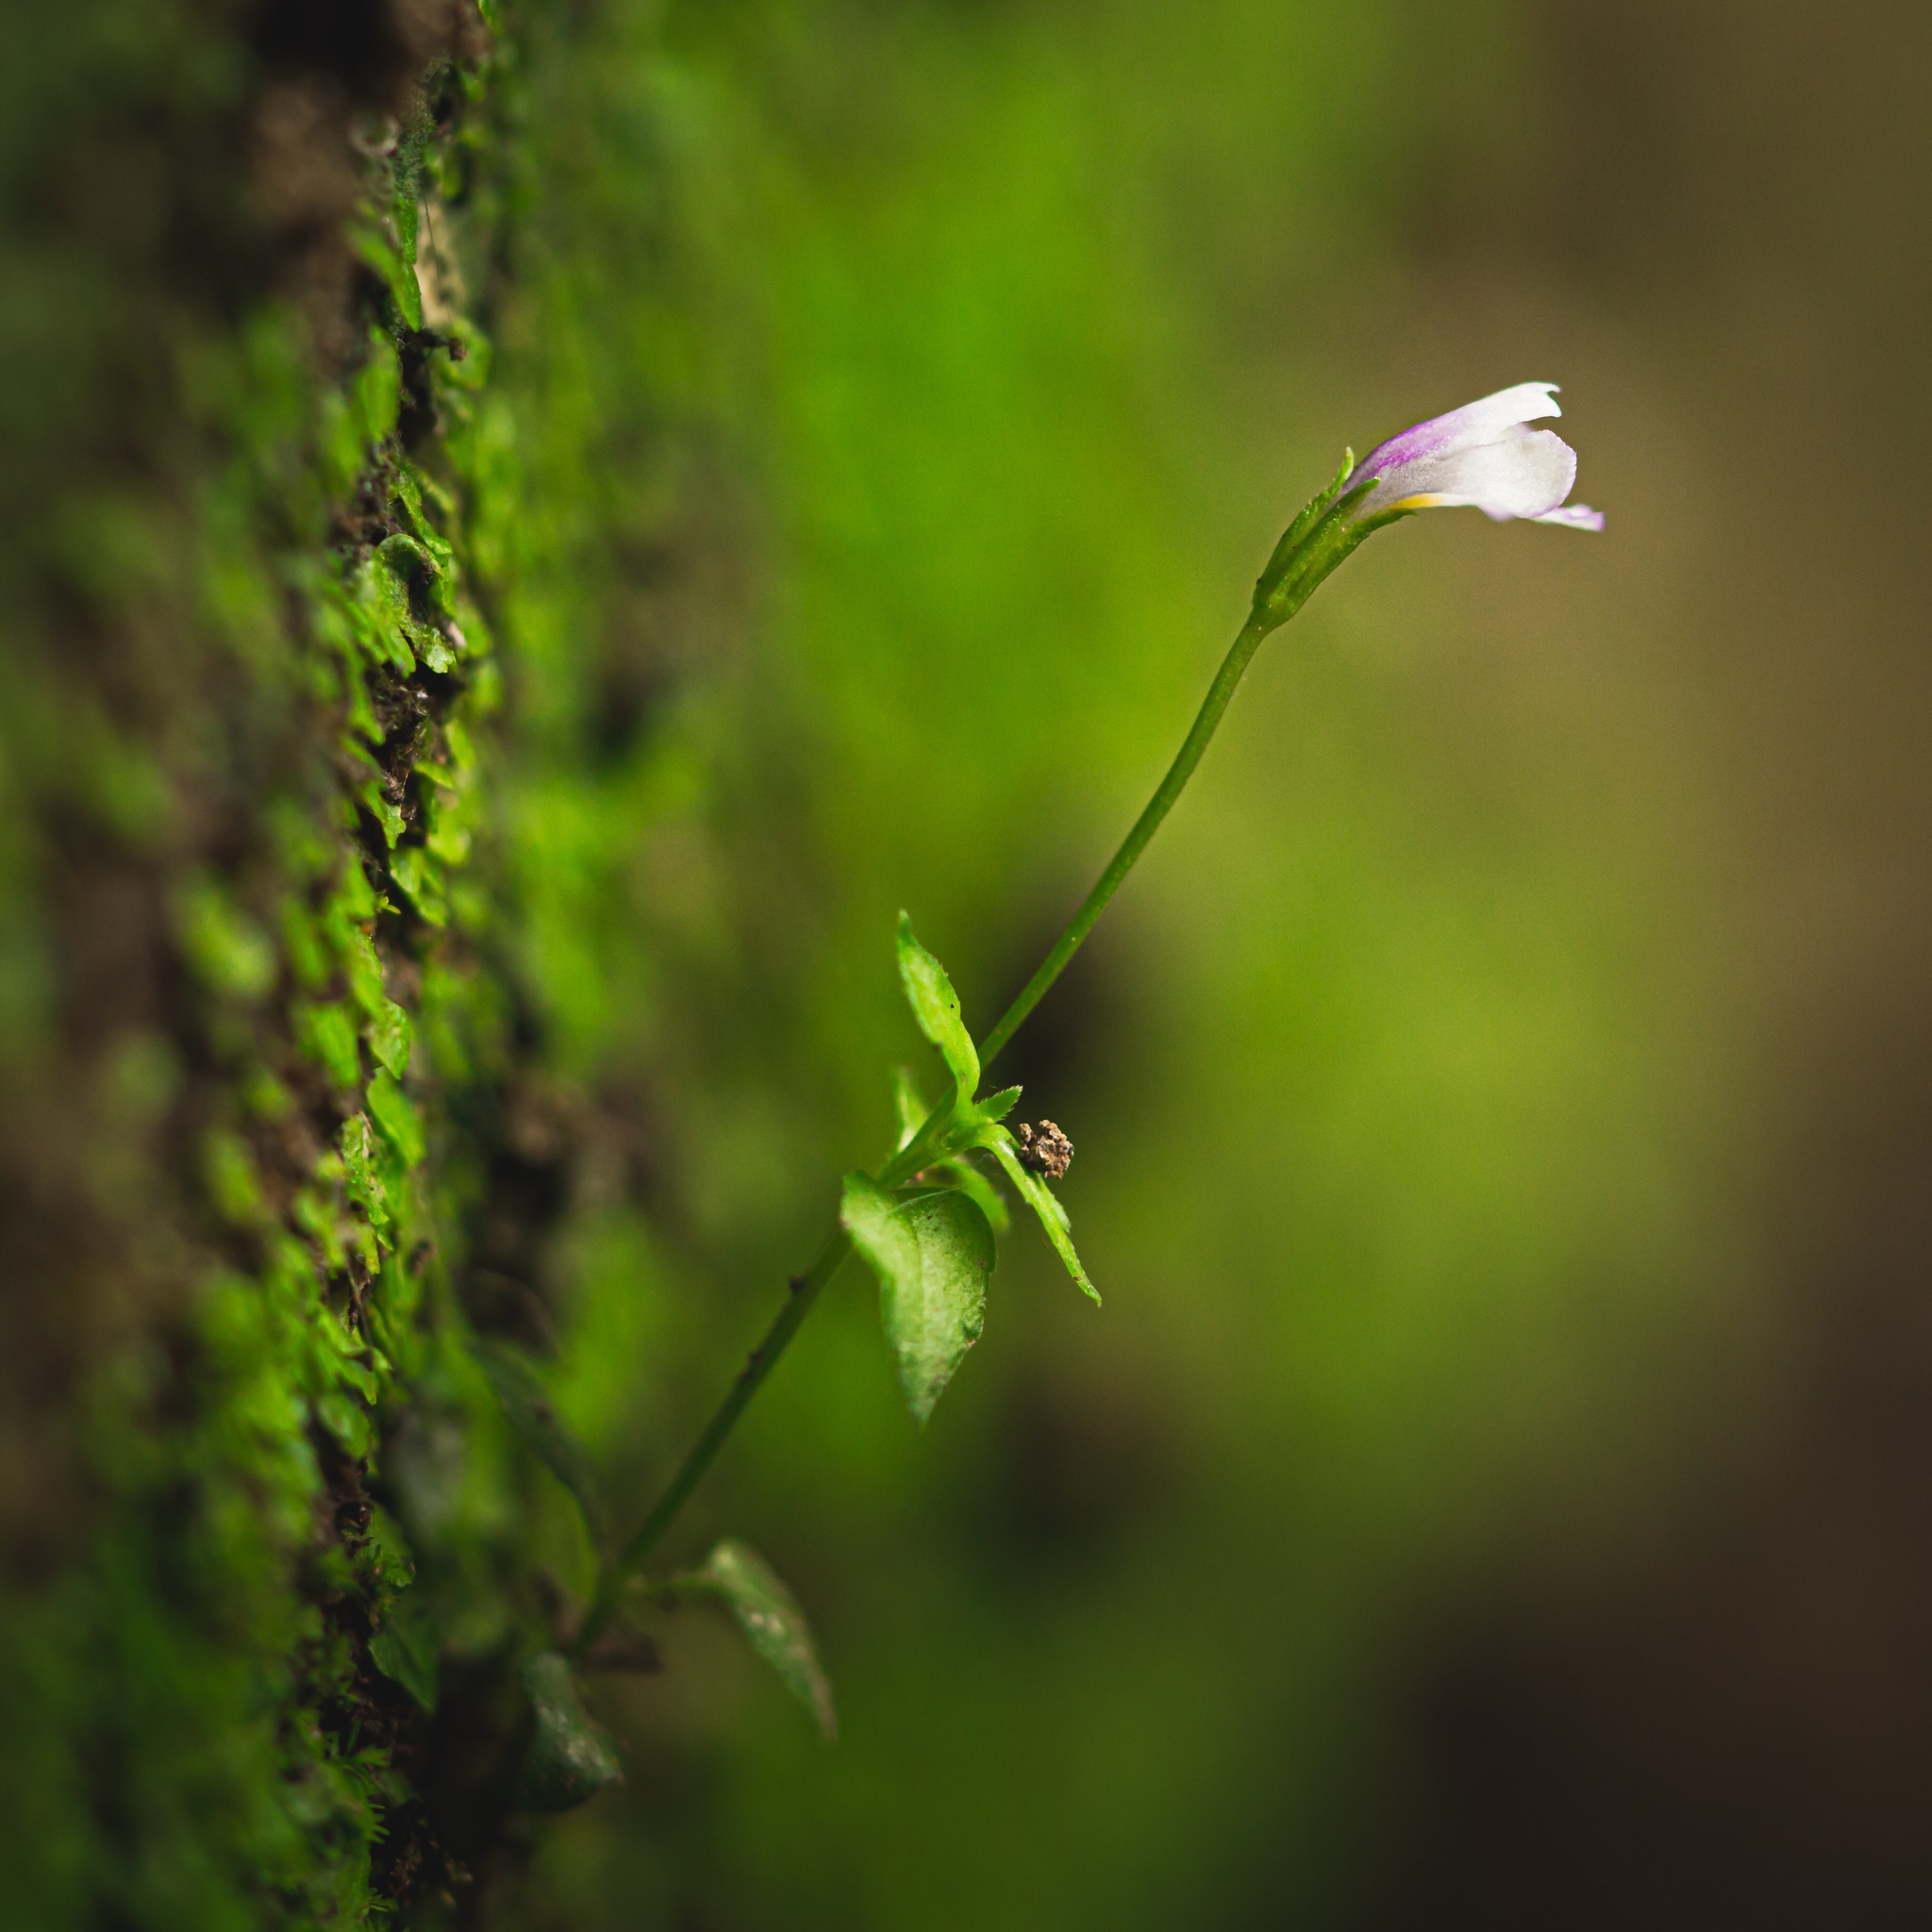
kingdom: Plantae
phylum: Tracheophyta
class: Magnoliopsida
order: Lamiales
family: Linderniaceae
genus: Torenia
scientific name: Torenia crustacea
